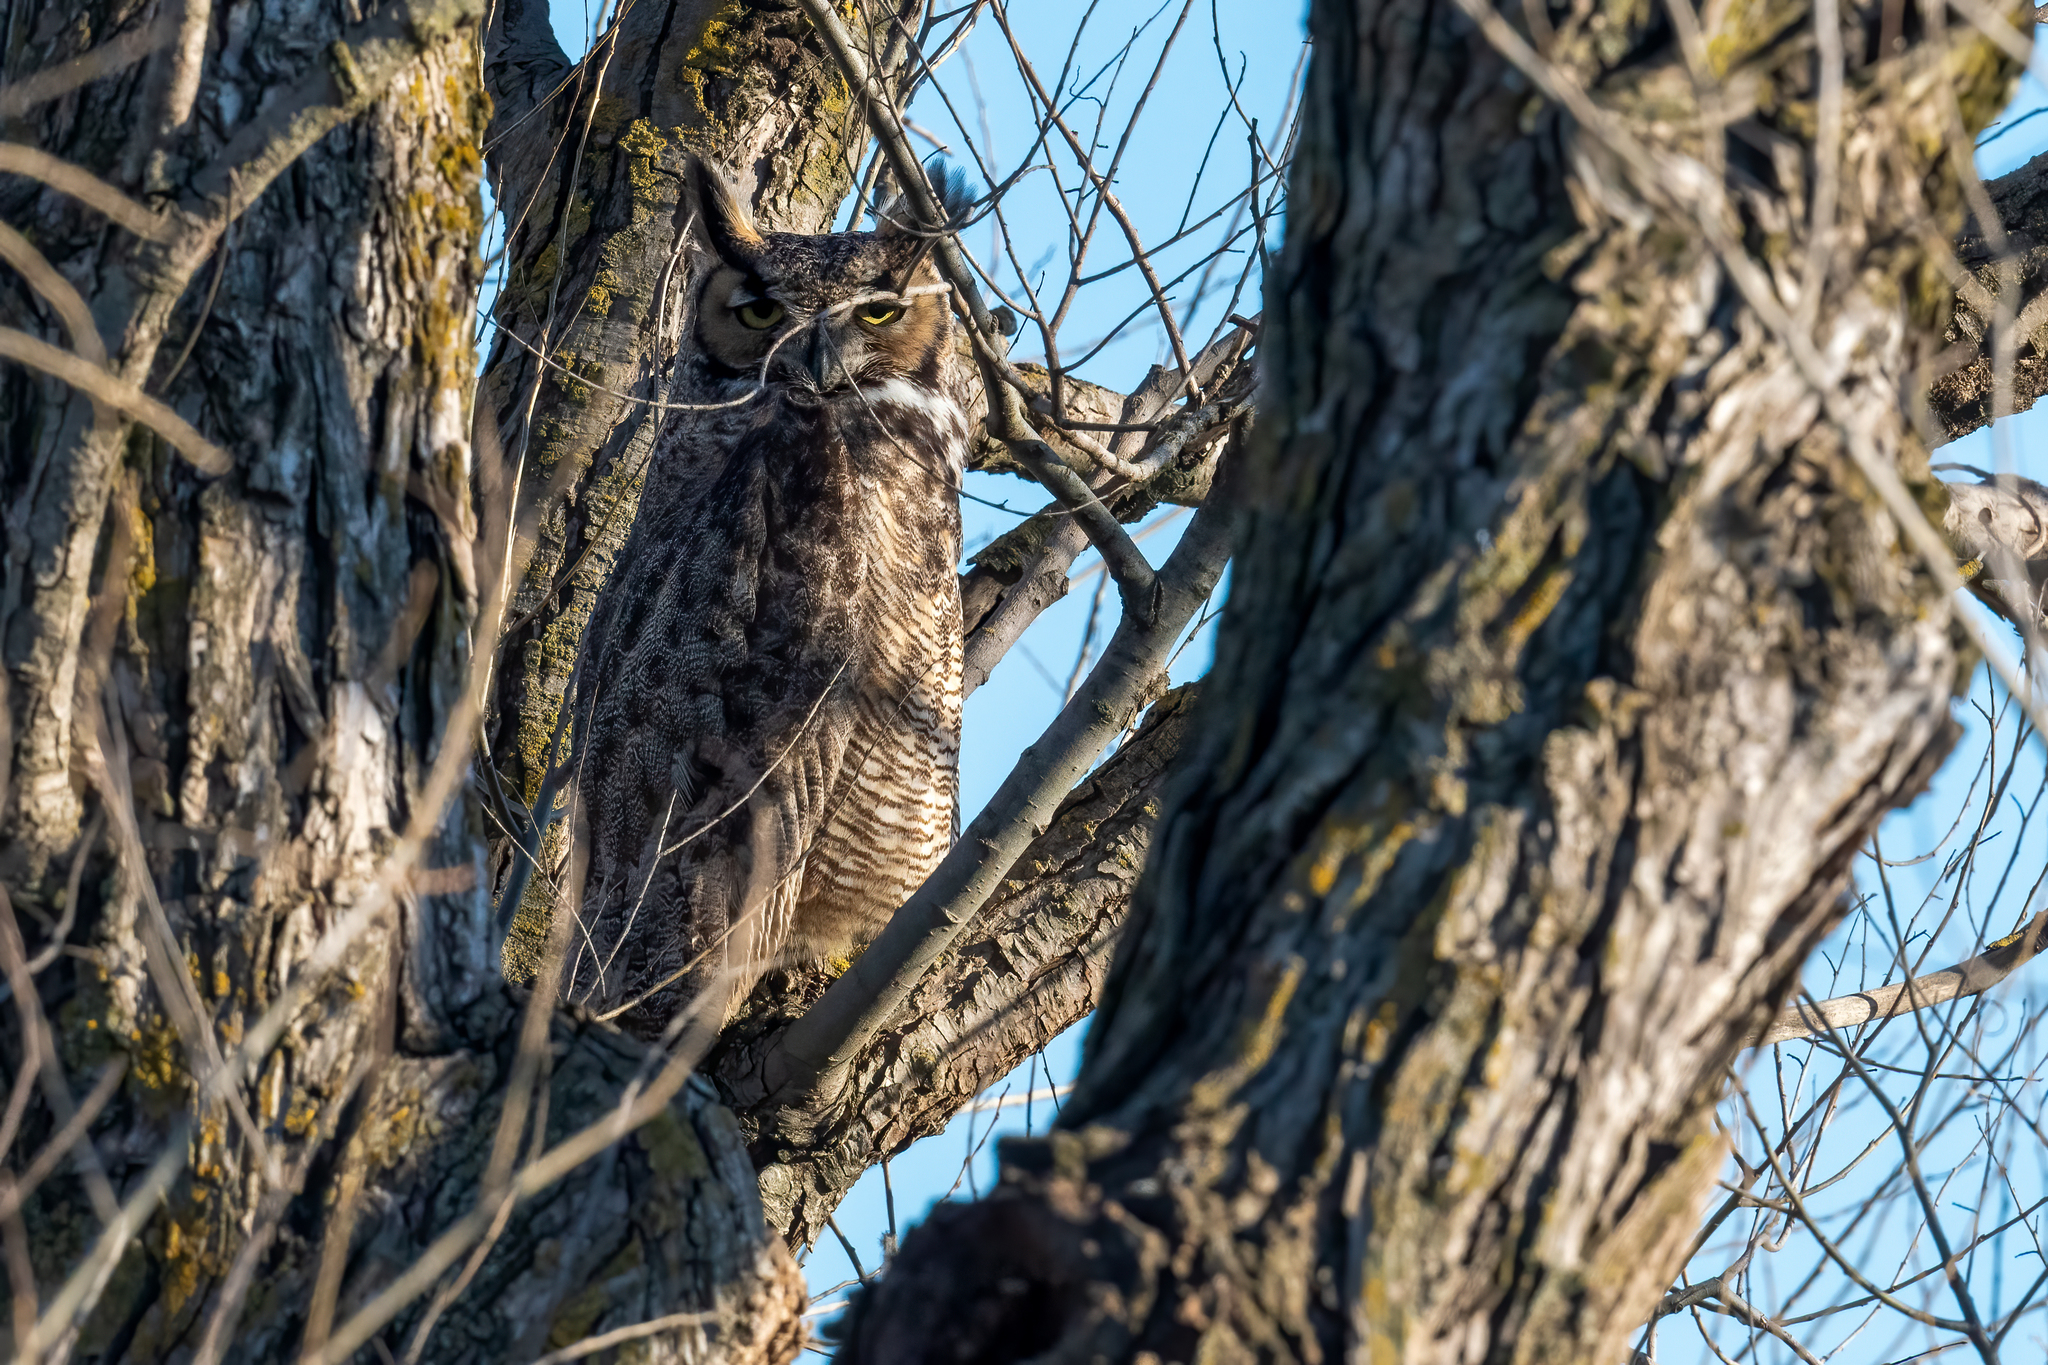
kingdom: Animalia
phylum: Chordata
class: Aves
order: Strigiformes
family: Strigidae
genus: Bubo
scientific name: Bubo virginianus
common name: Great horned owl
